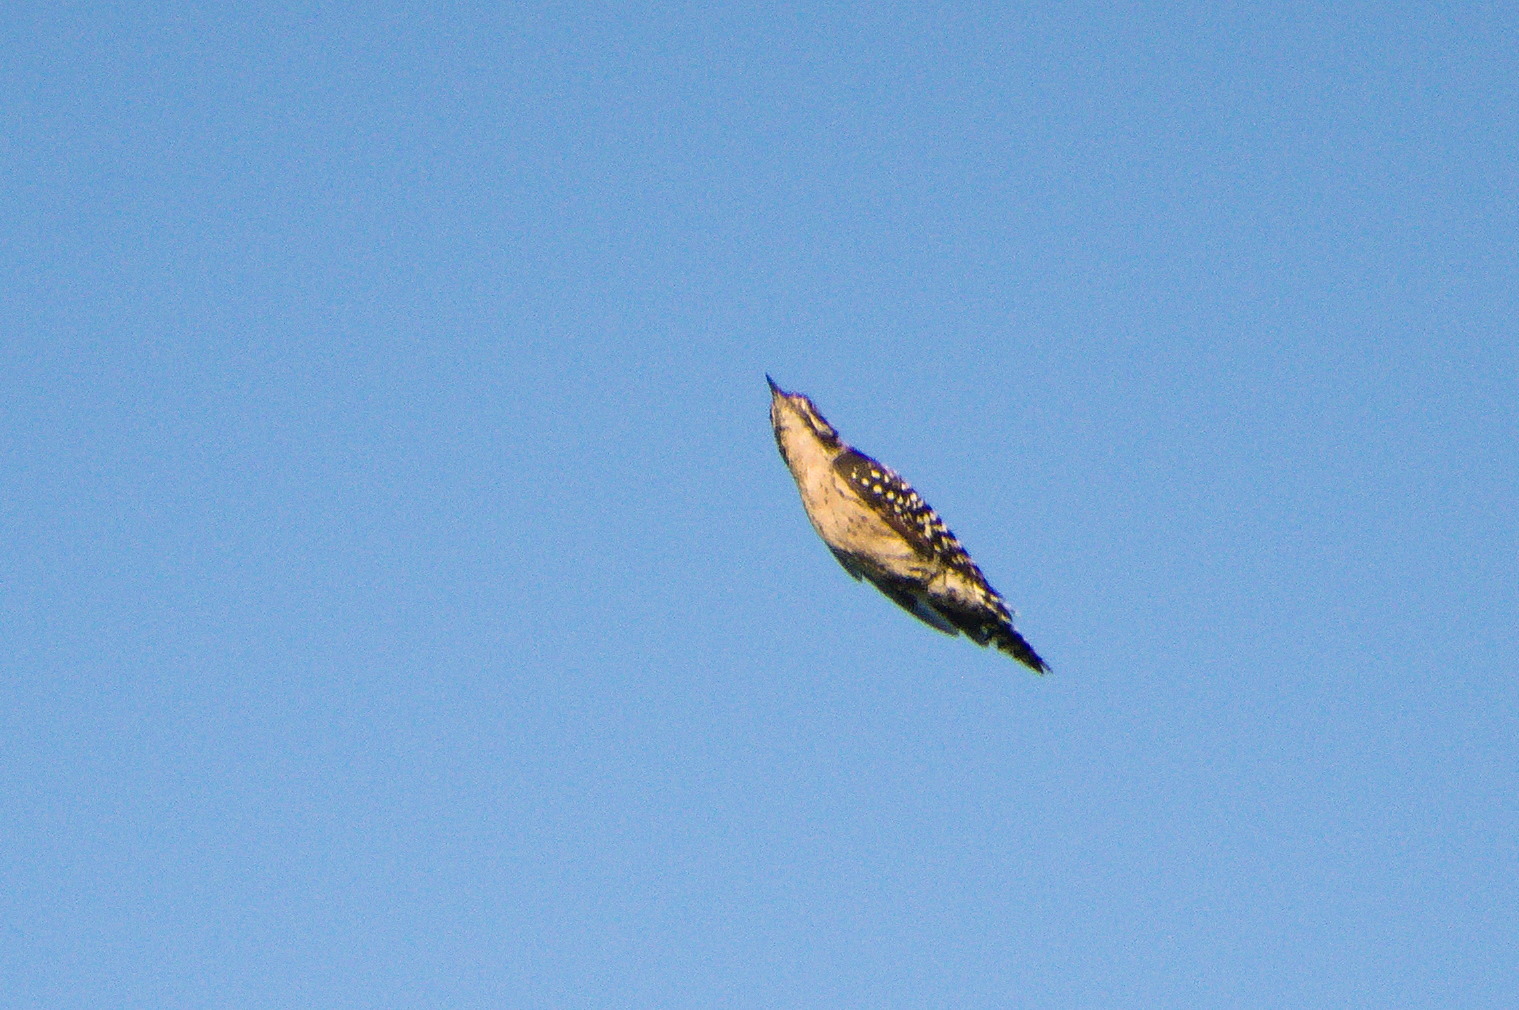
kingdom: Animalia
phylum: Chordata
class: Aves
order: Piciformes
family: Picidae
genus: Dryobates
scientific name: Dryobates scalaris
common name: Ladder-backed woodpecker
